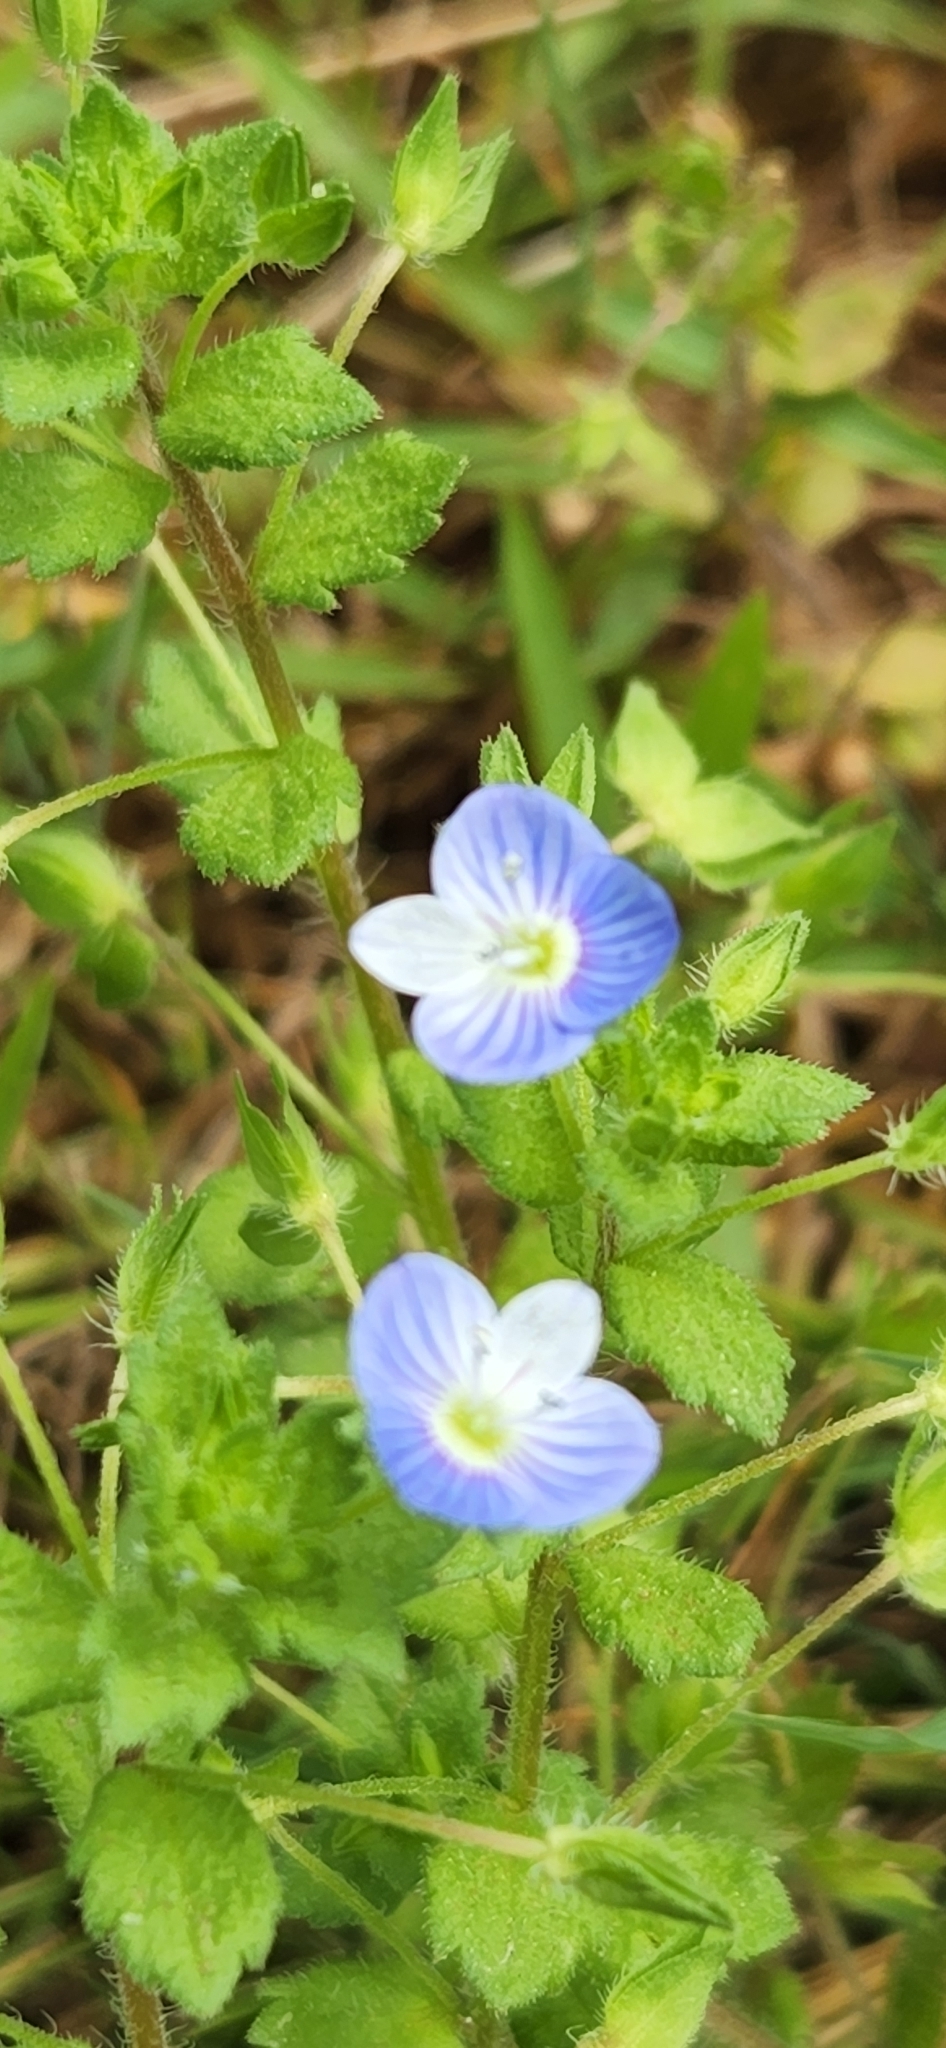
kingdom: Plantae
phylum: Tracheophyta
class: Magnoliopsida
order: Lamiales
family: Plantaginaceae
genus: Veronica
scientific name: Veronica persica
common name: Common field-speedwell
